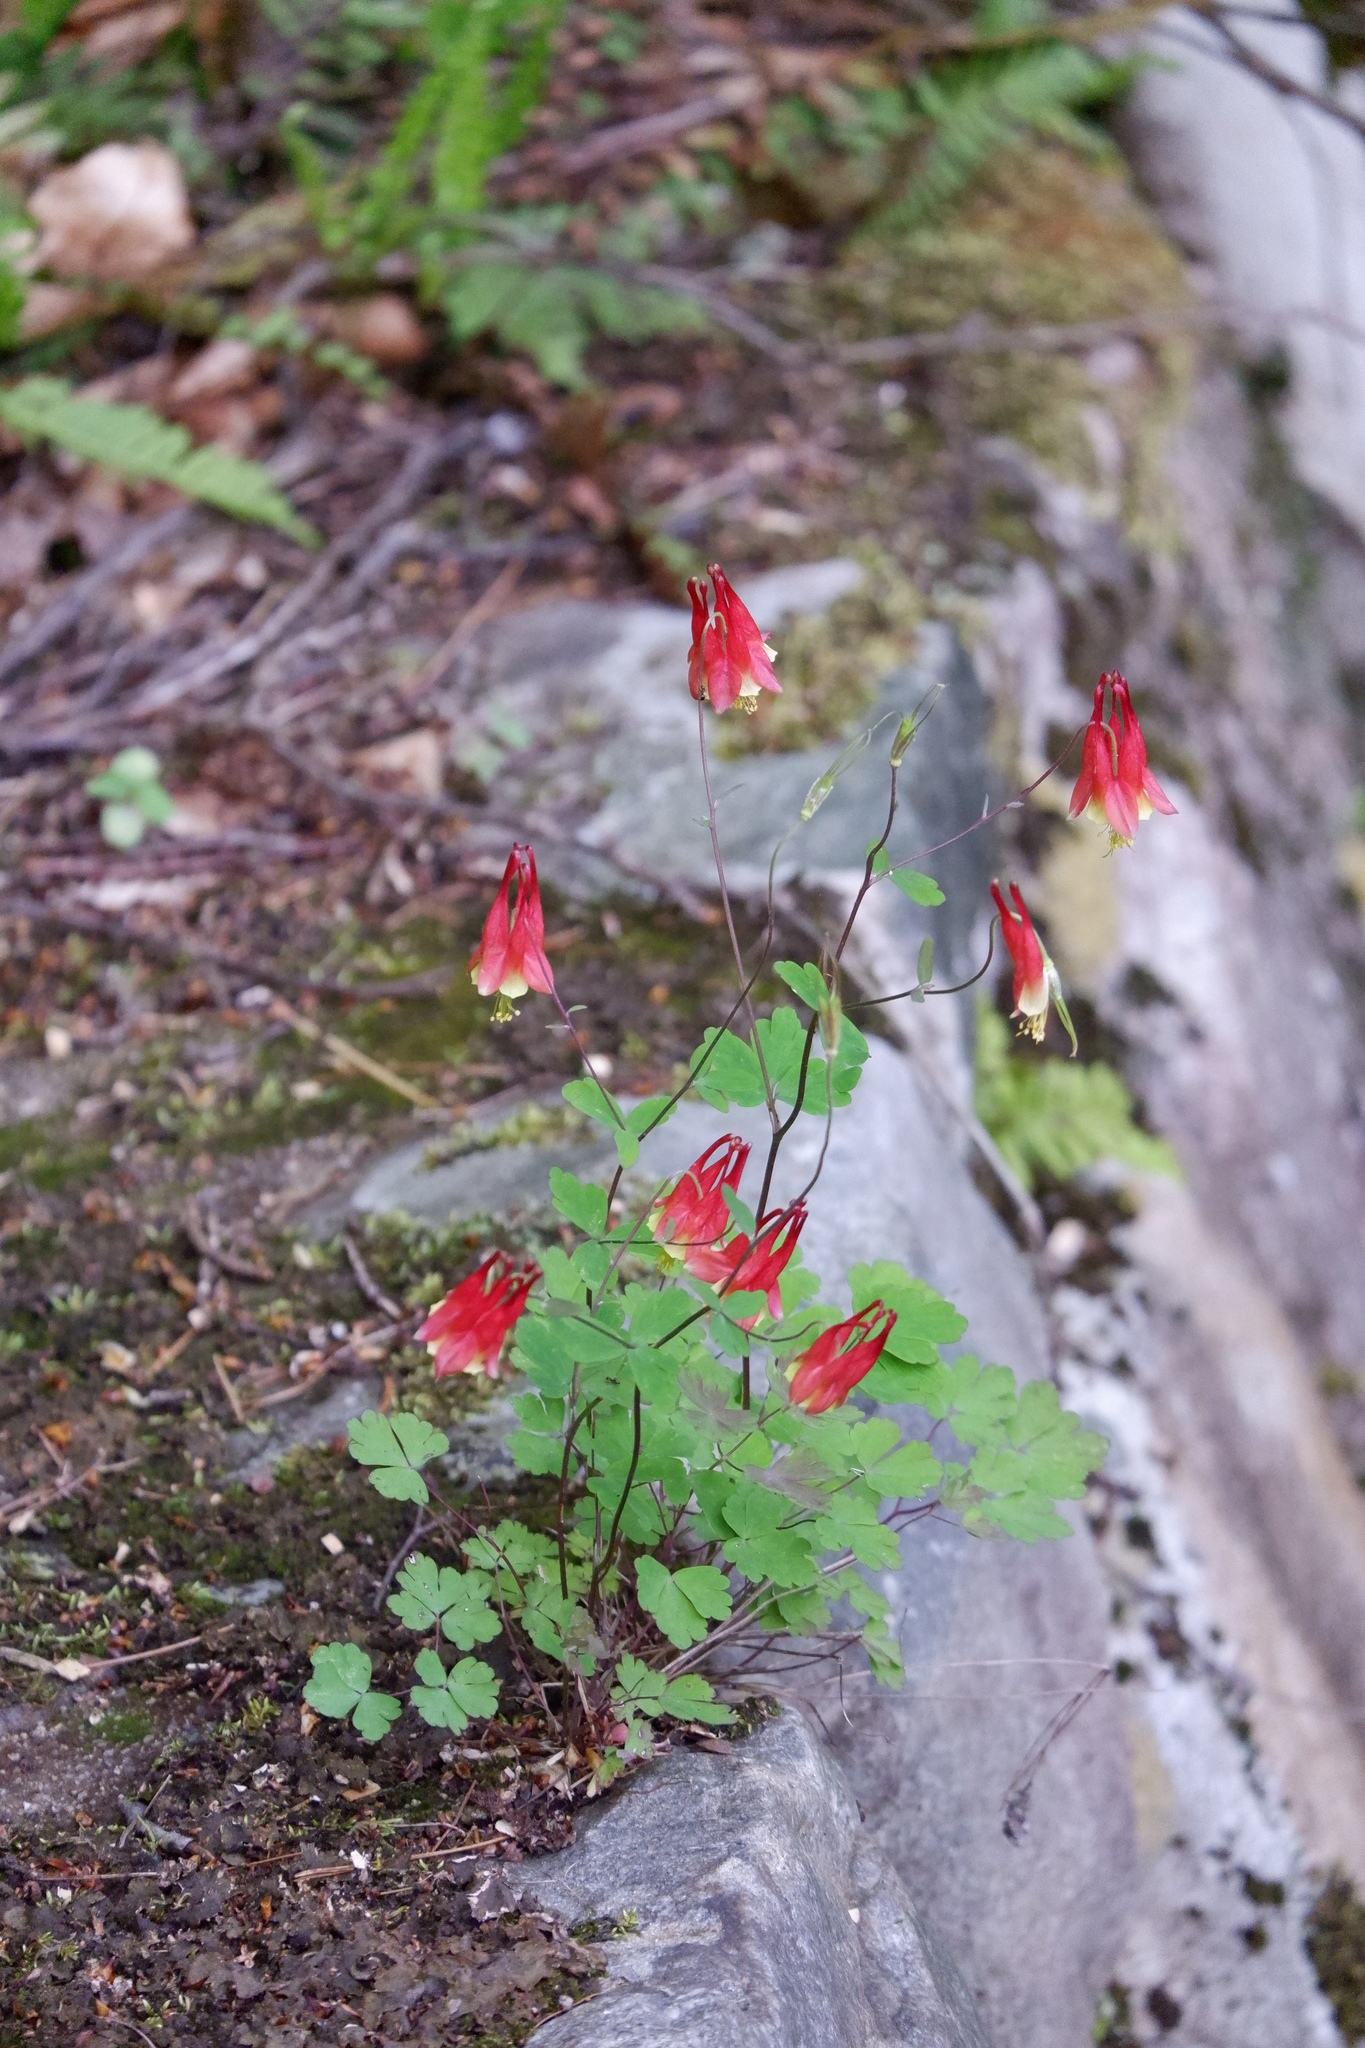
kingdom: Plantae
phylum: Tracheophyta
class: Magnoliopsida
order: Ranunculales
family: Ranunculaceae
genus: Aquilegia
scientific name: Aquilegia canadensis
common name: American columbine
